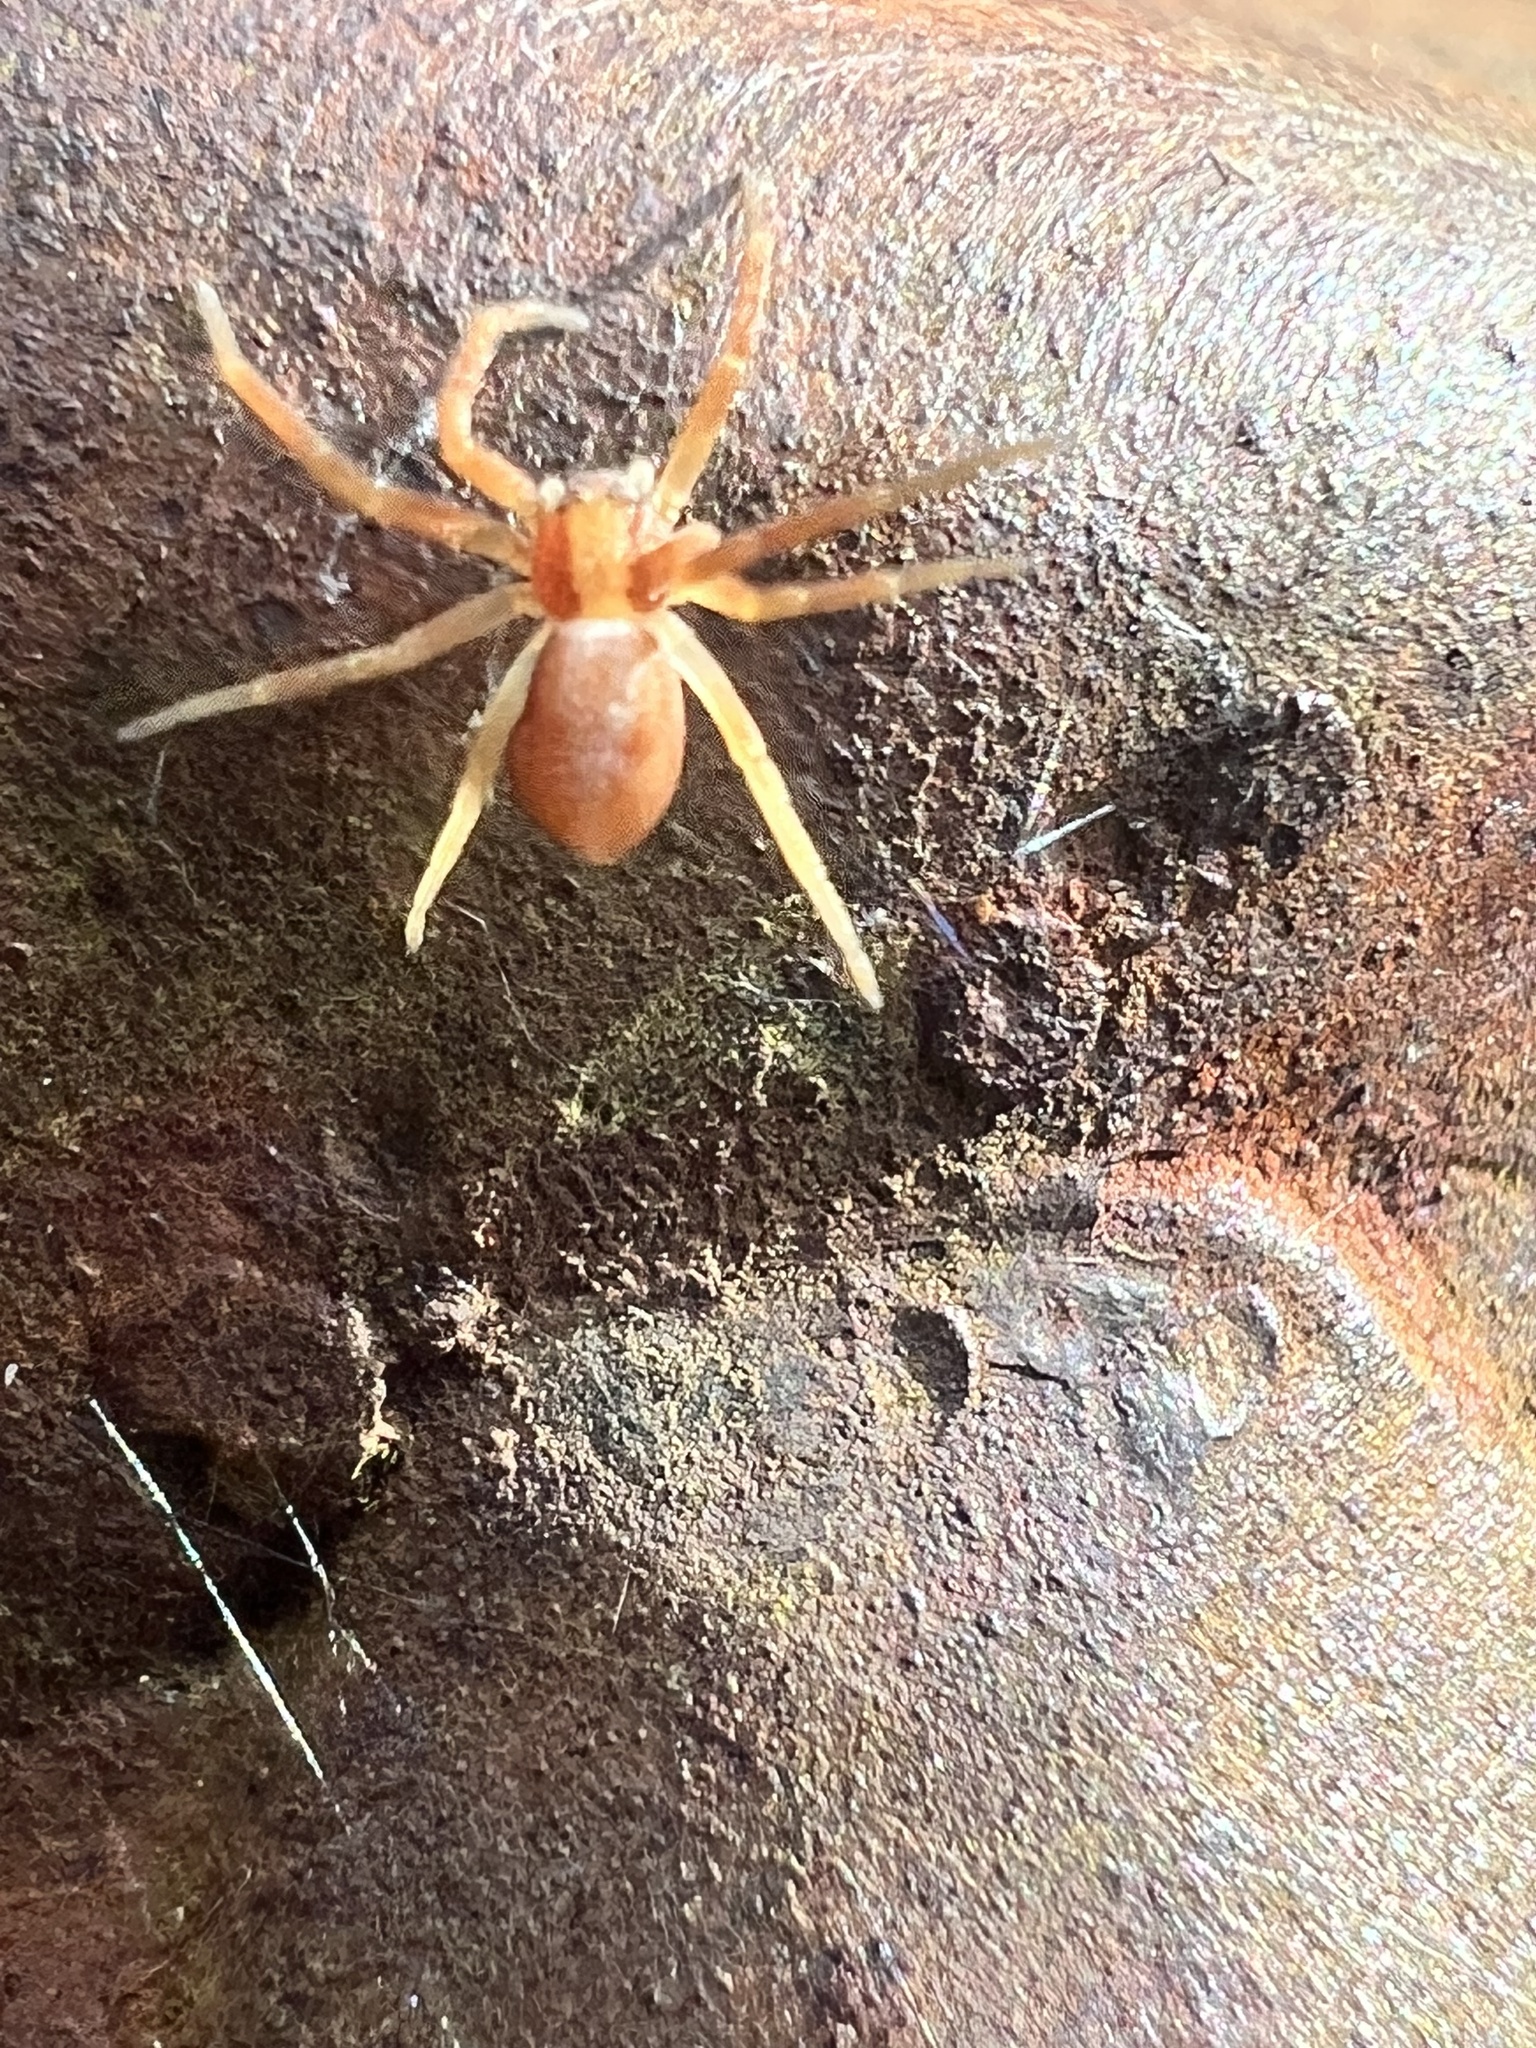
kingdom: Animalia
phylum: Arthropoda
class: Arachnida
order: Araneae
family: Philodromidae
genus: Philodromus
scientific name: Philodromus rufus
